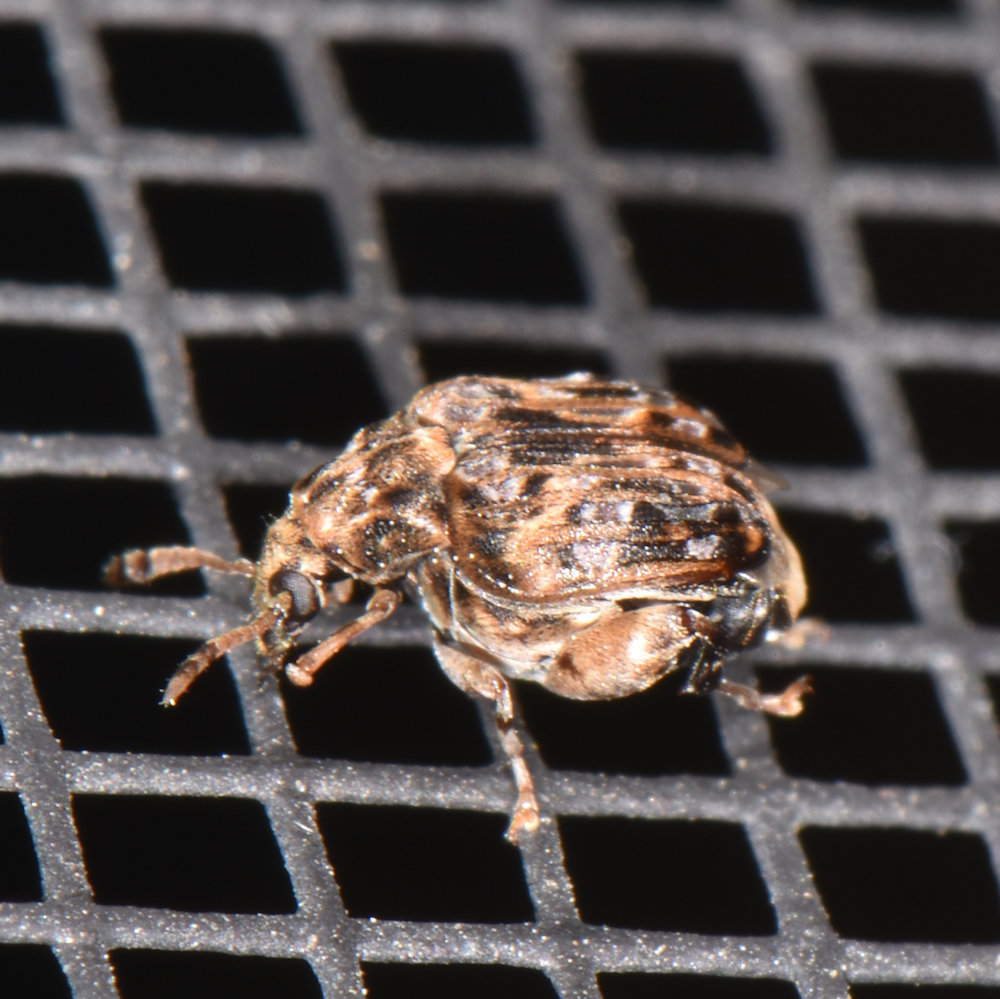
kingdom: Animalia
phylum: Arthropoda
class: Insecta
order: Coleoptera
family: Chrysomelidae
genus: Gibbobruchus
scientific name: Gibbobruchus mimus
